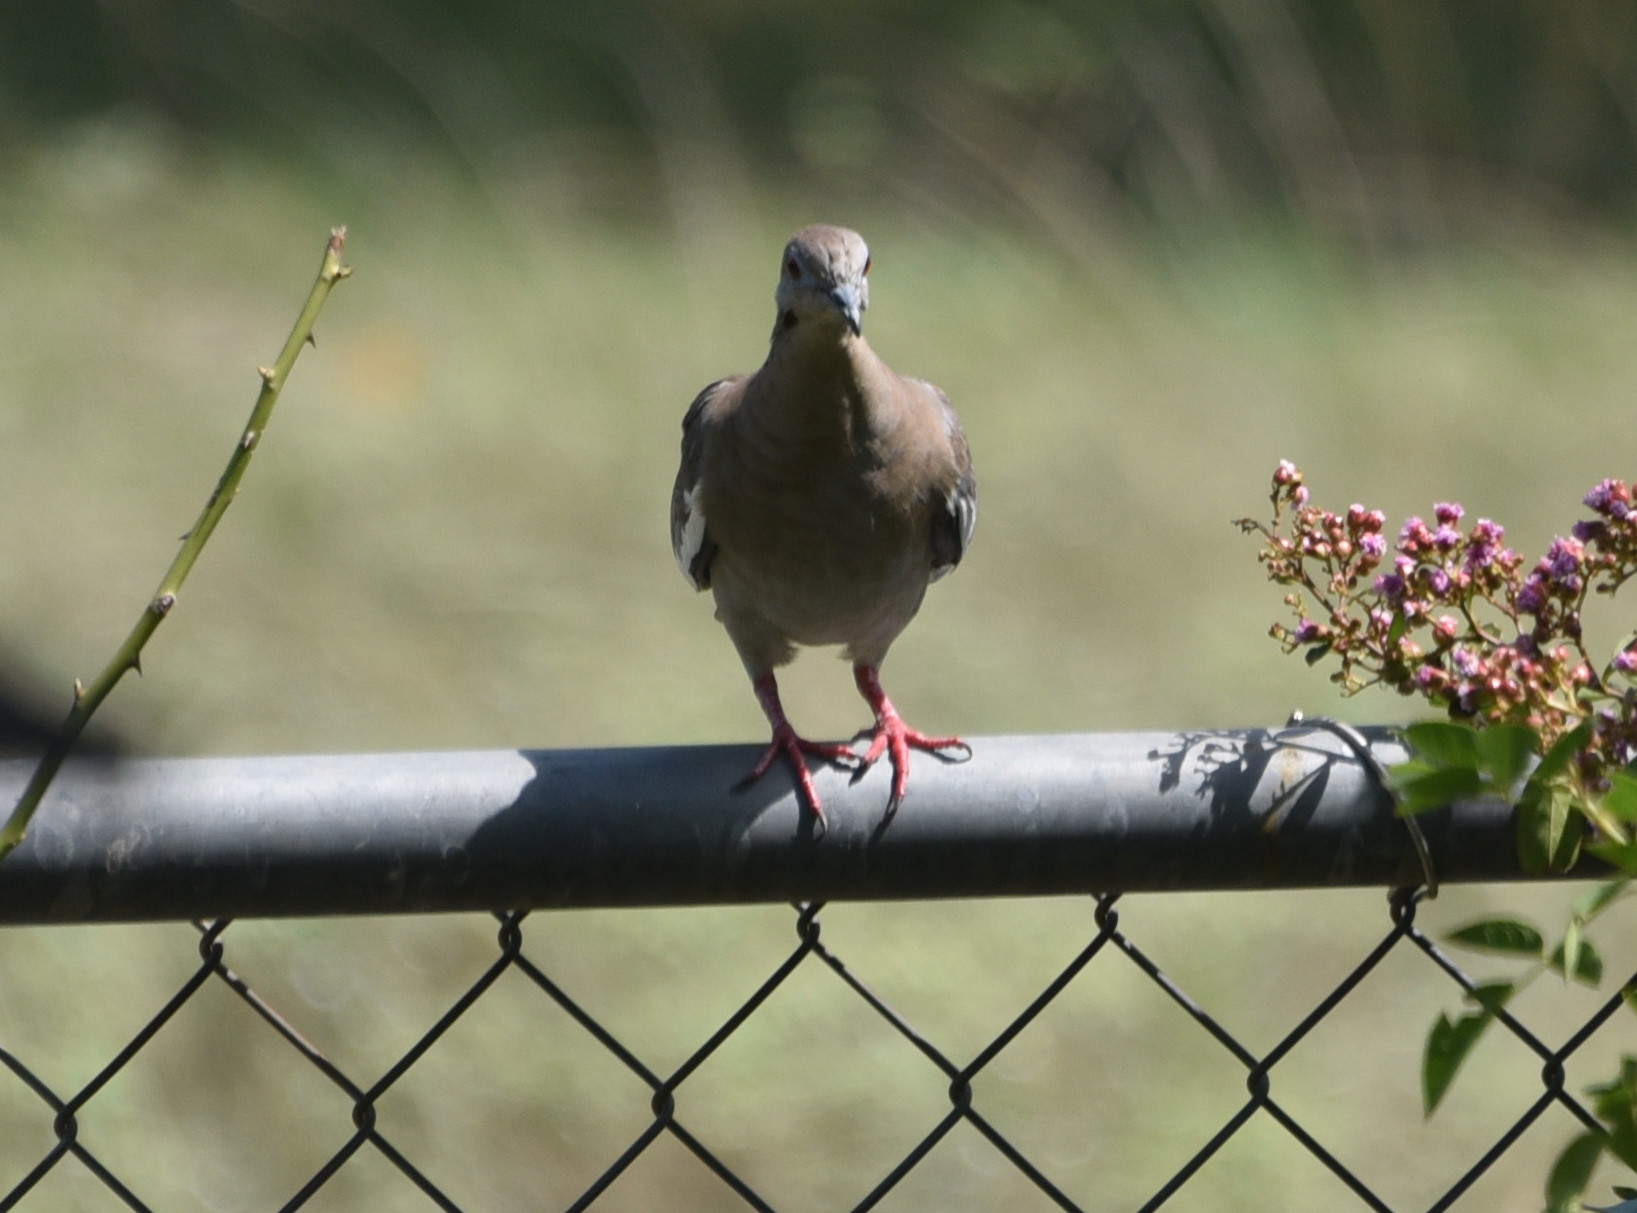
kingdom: Animalia
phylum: Chordata
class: Aves
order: Columbiformes
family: Columbidae
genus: Zenaida
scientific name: Zenaida asiatica
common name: White-winged dove
